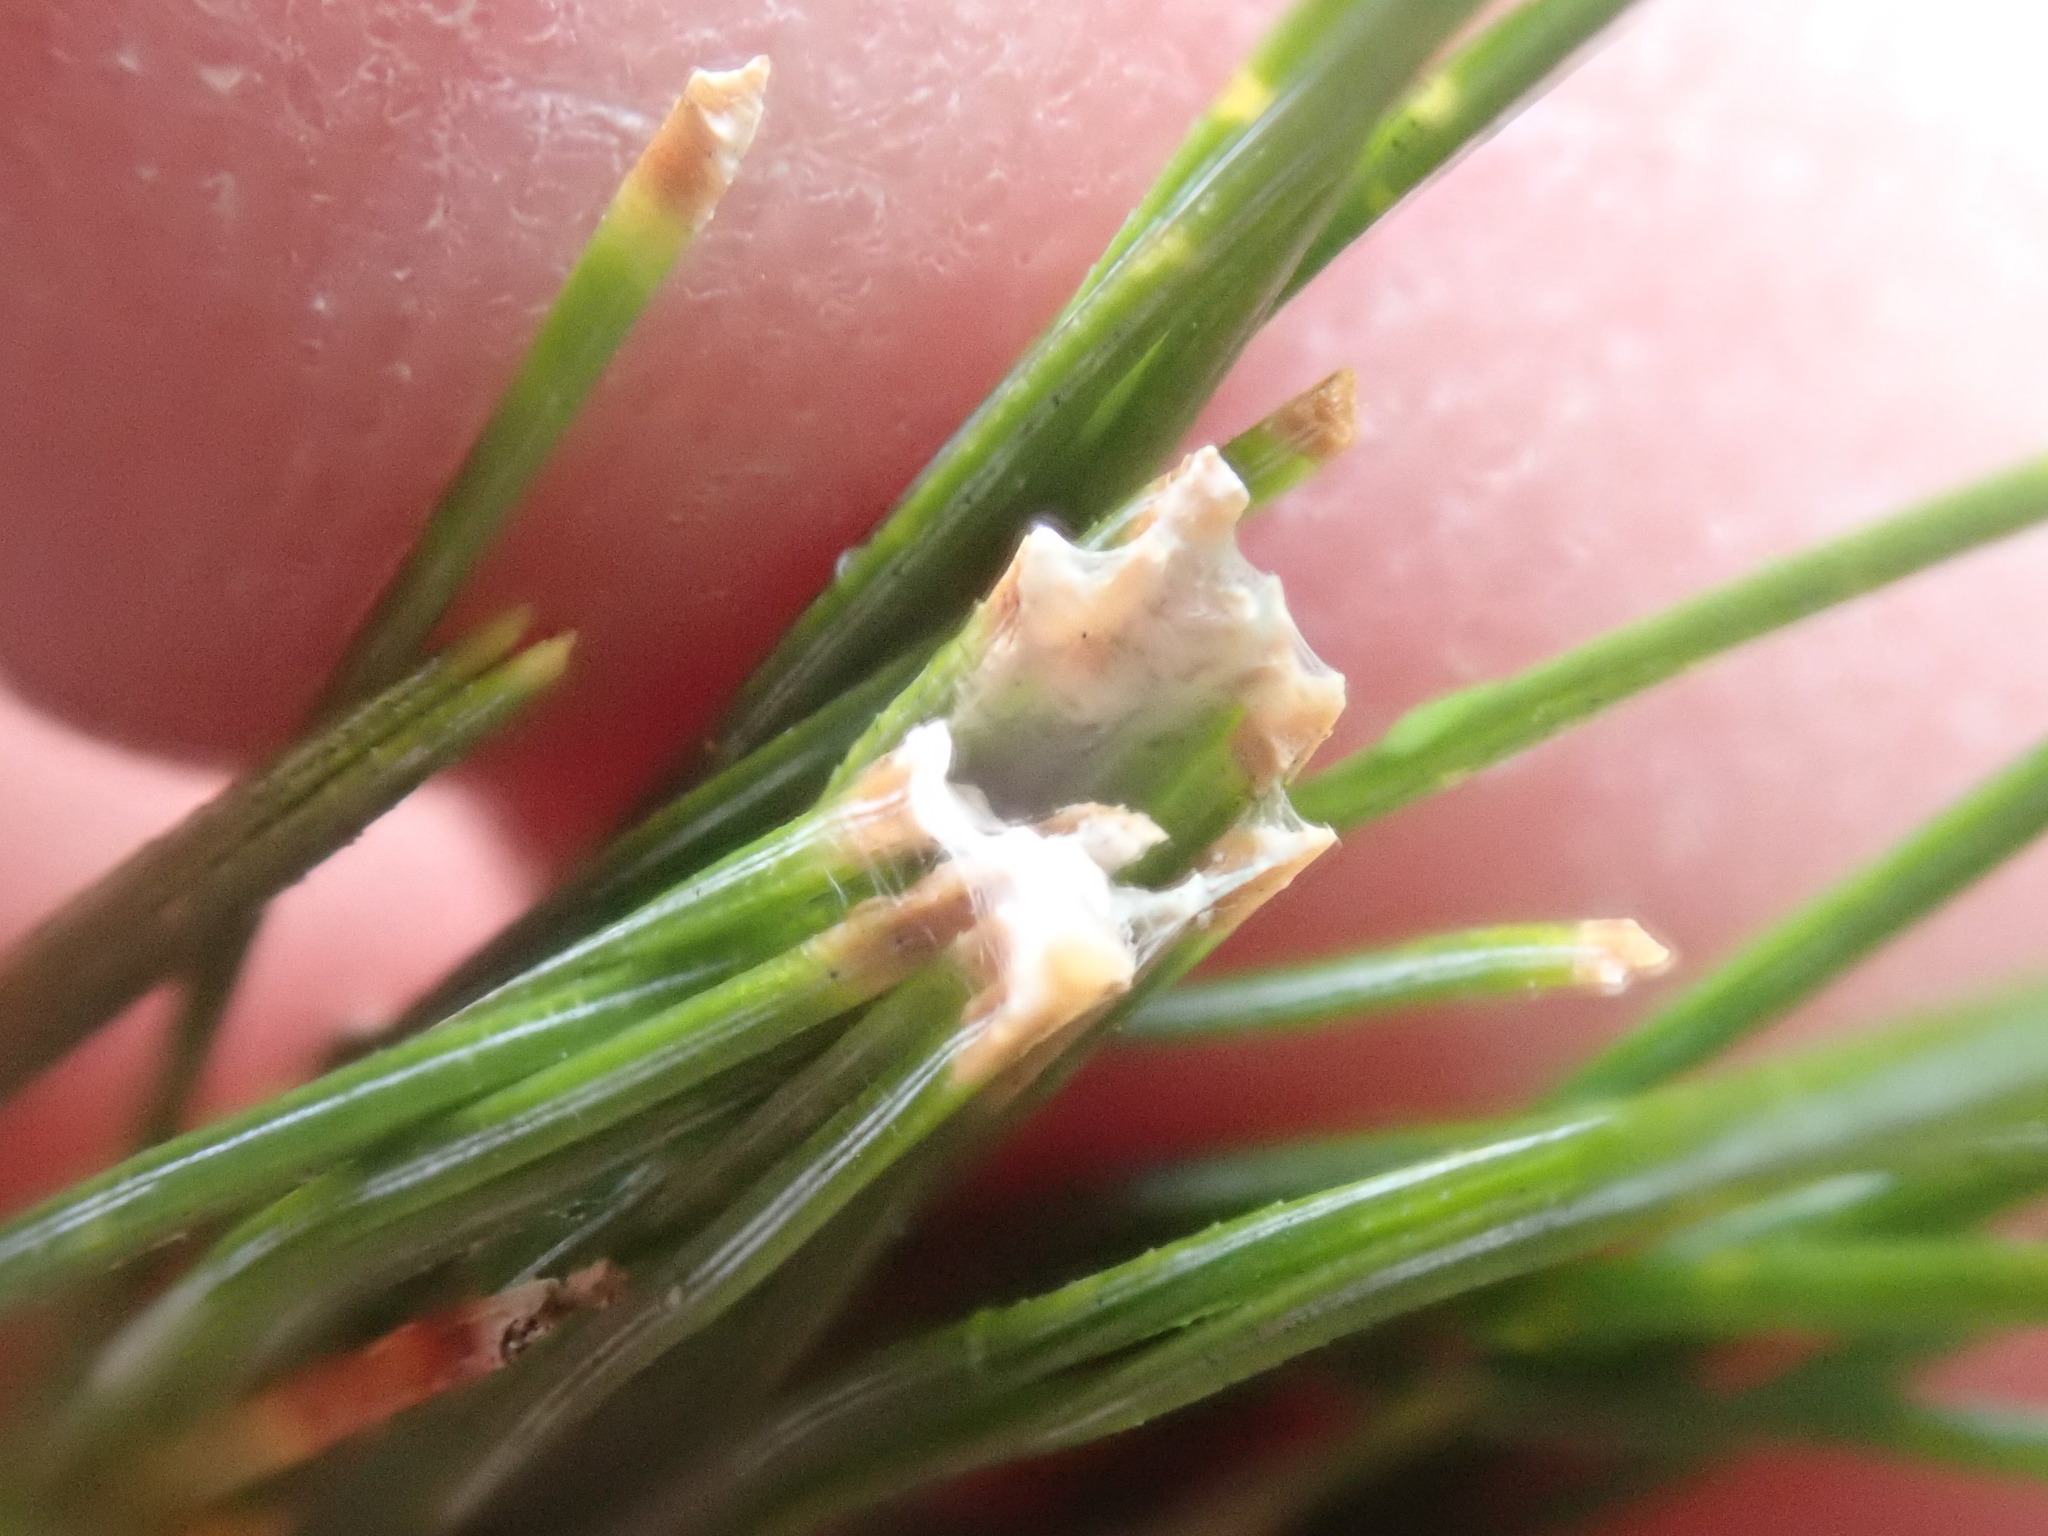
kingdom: Animalia
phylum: Arthropoda
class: Insecta
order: Lepidoptera
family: Tortricidae
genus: Argyrotaenia
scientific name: Argyrotaenia pinatubana
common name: Pine tube moth
